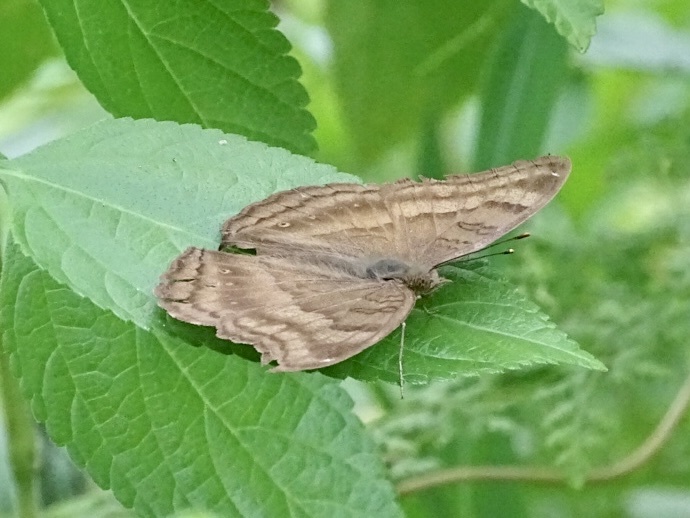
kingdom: Animalia
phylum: Arthropoda
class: Insecta
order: Lepidoptera
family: Nymphalidae
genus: Junonia
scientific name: Junonia iphita
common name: Chocolate pansy
